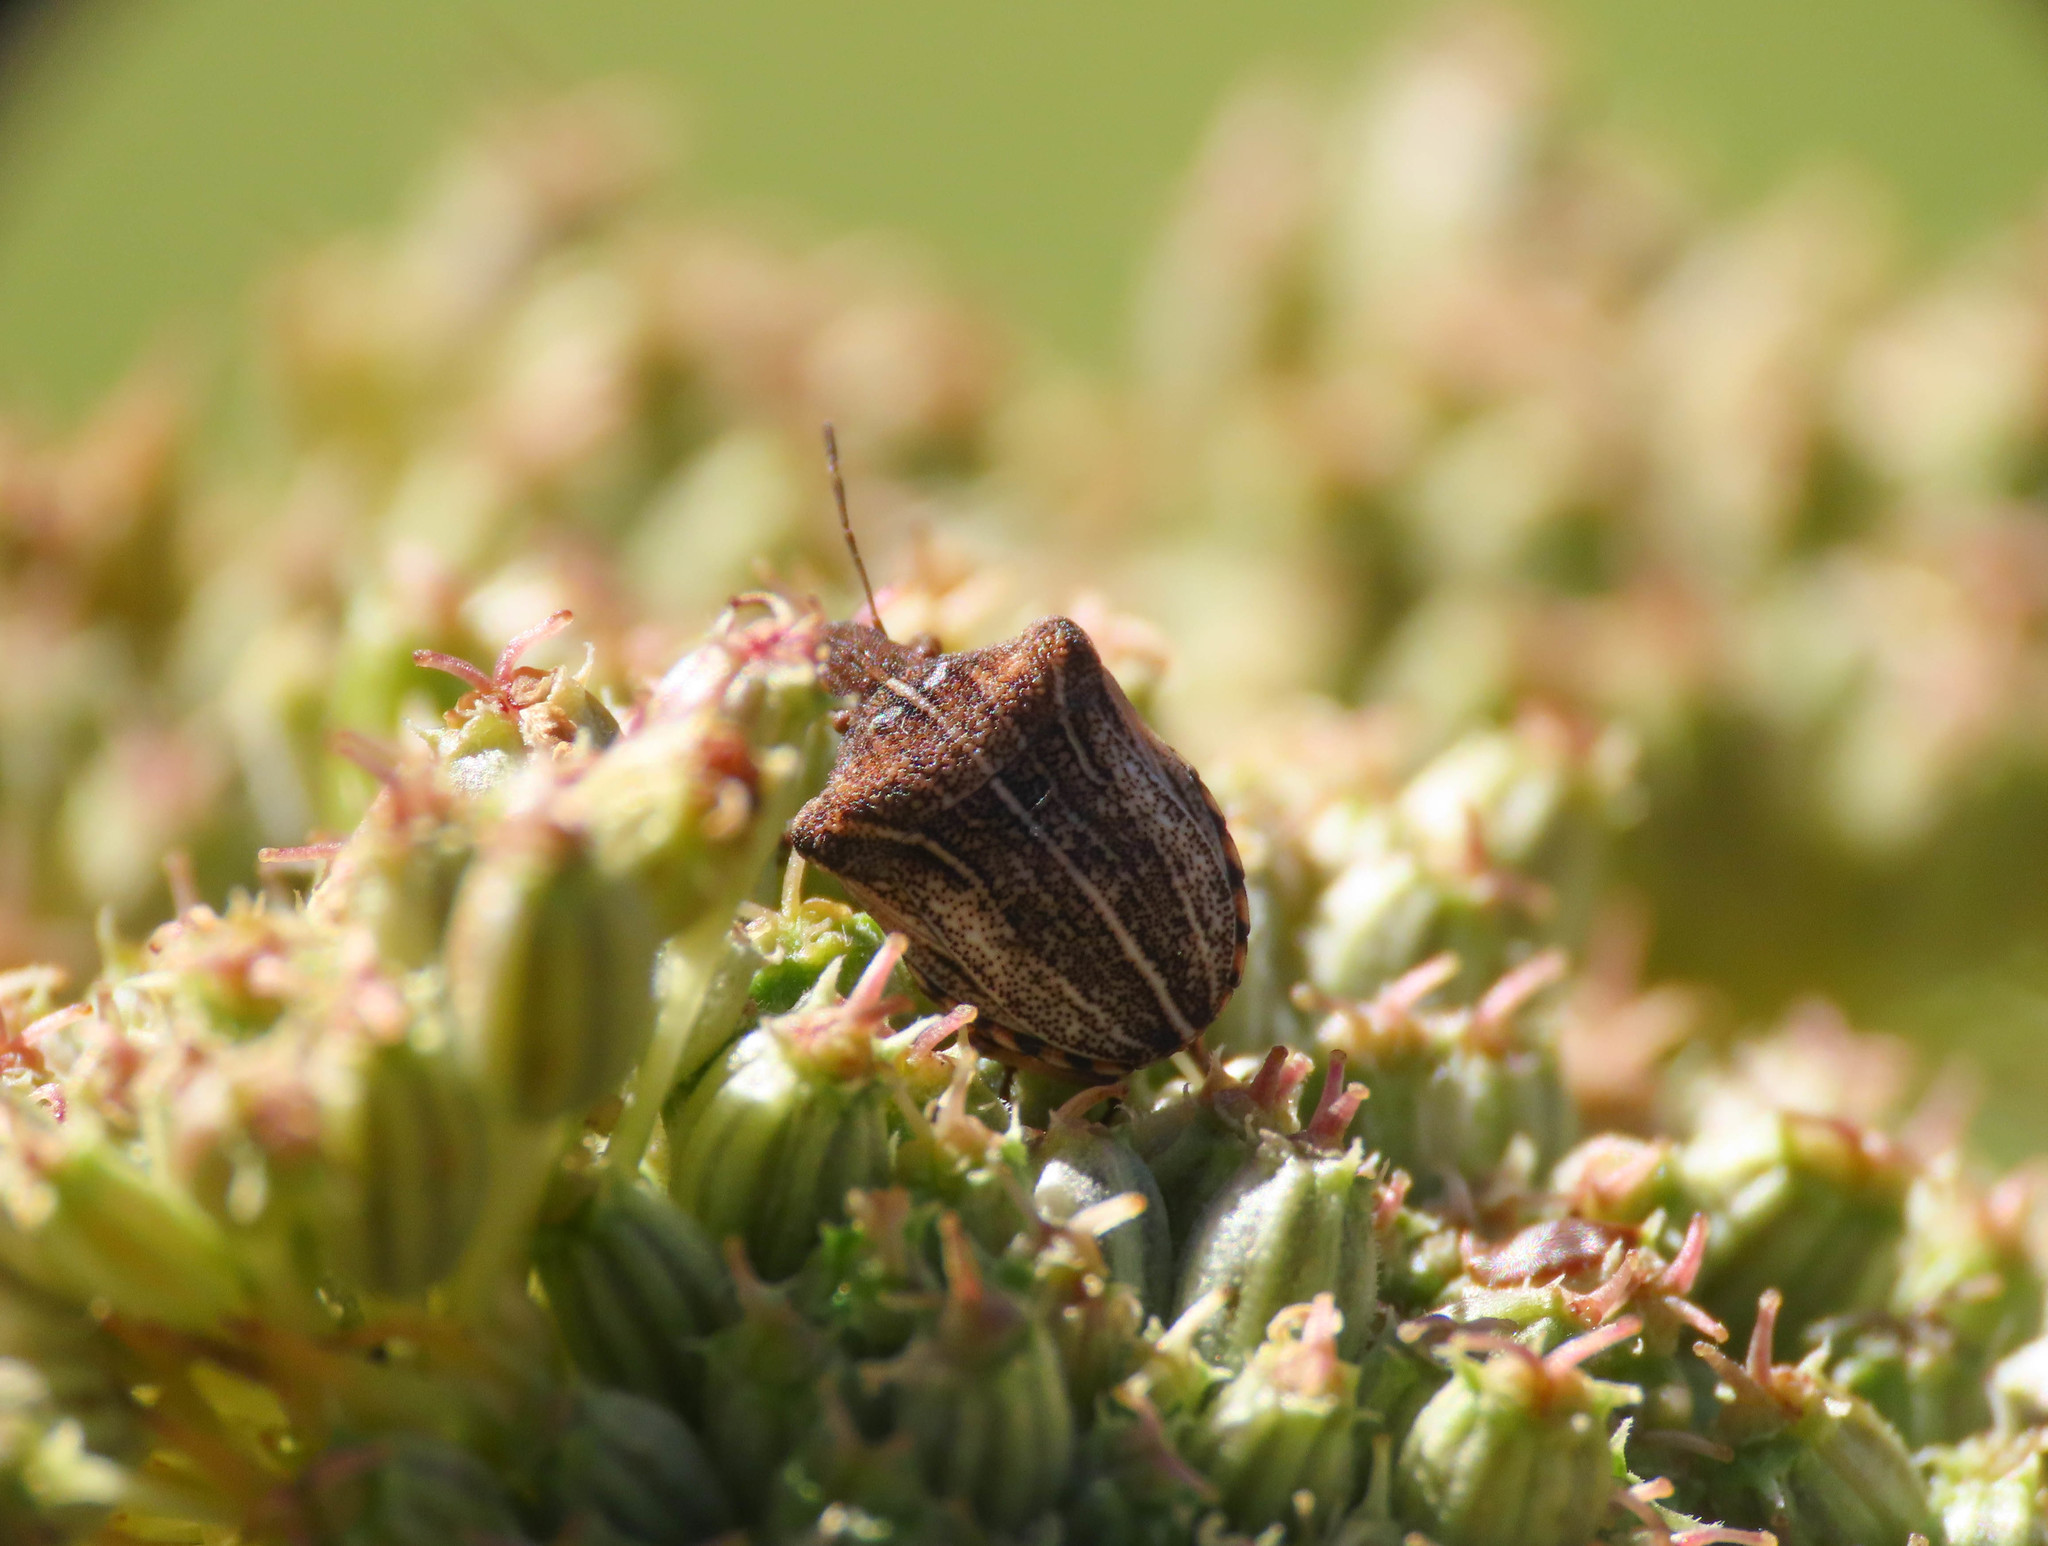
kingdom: Animalia
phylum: Arthropoda
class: Insecta
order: Hemiptera
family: Pentatomidae
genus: Sternodontus
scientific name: Sternodontus obtusus
